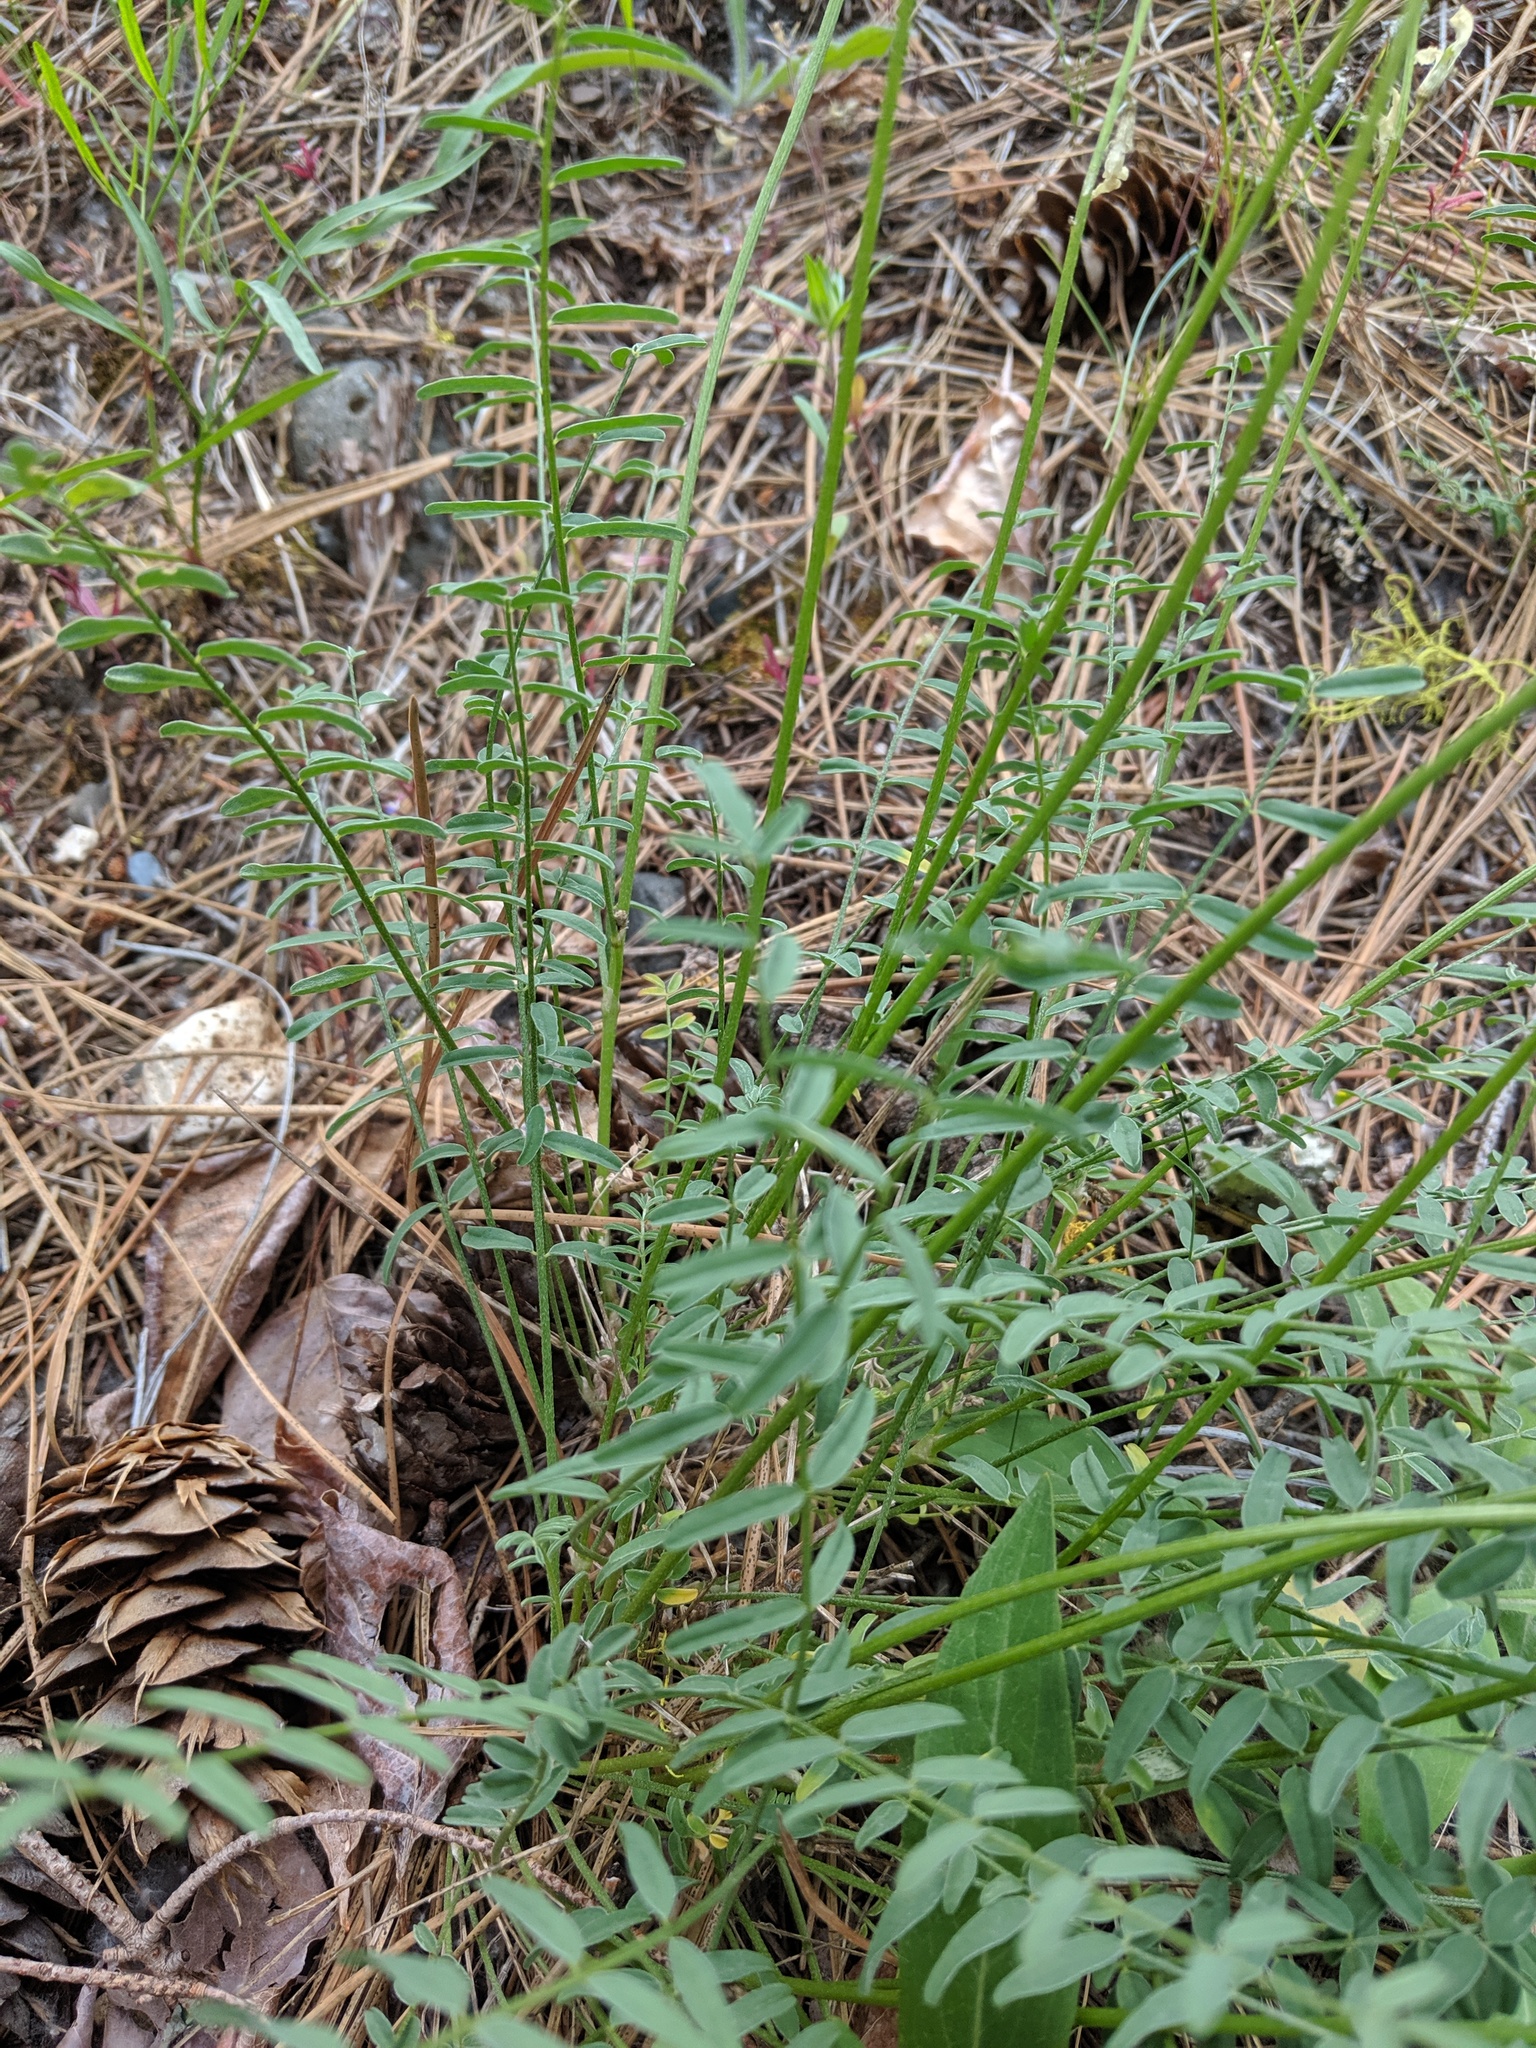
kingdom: Plantae
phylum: Tracheophyta
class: Magnoliopsida
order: Fabales
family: Fabaceae
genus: Astragalus
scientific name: Astragalus reventiformis
